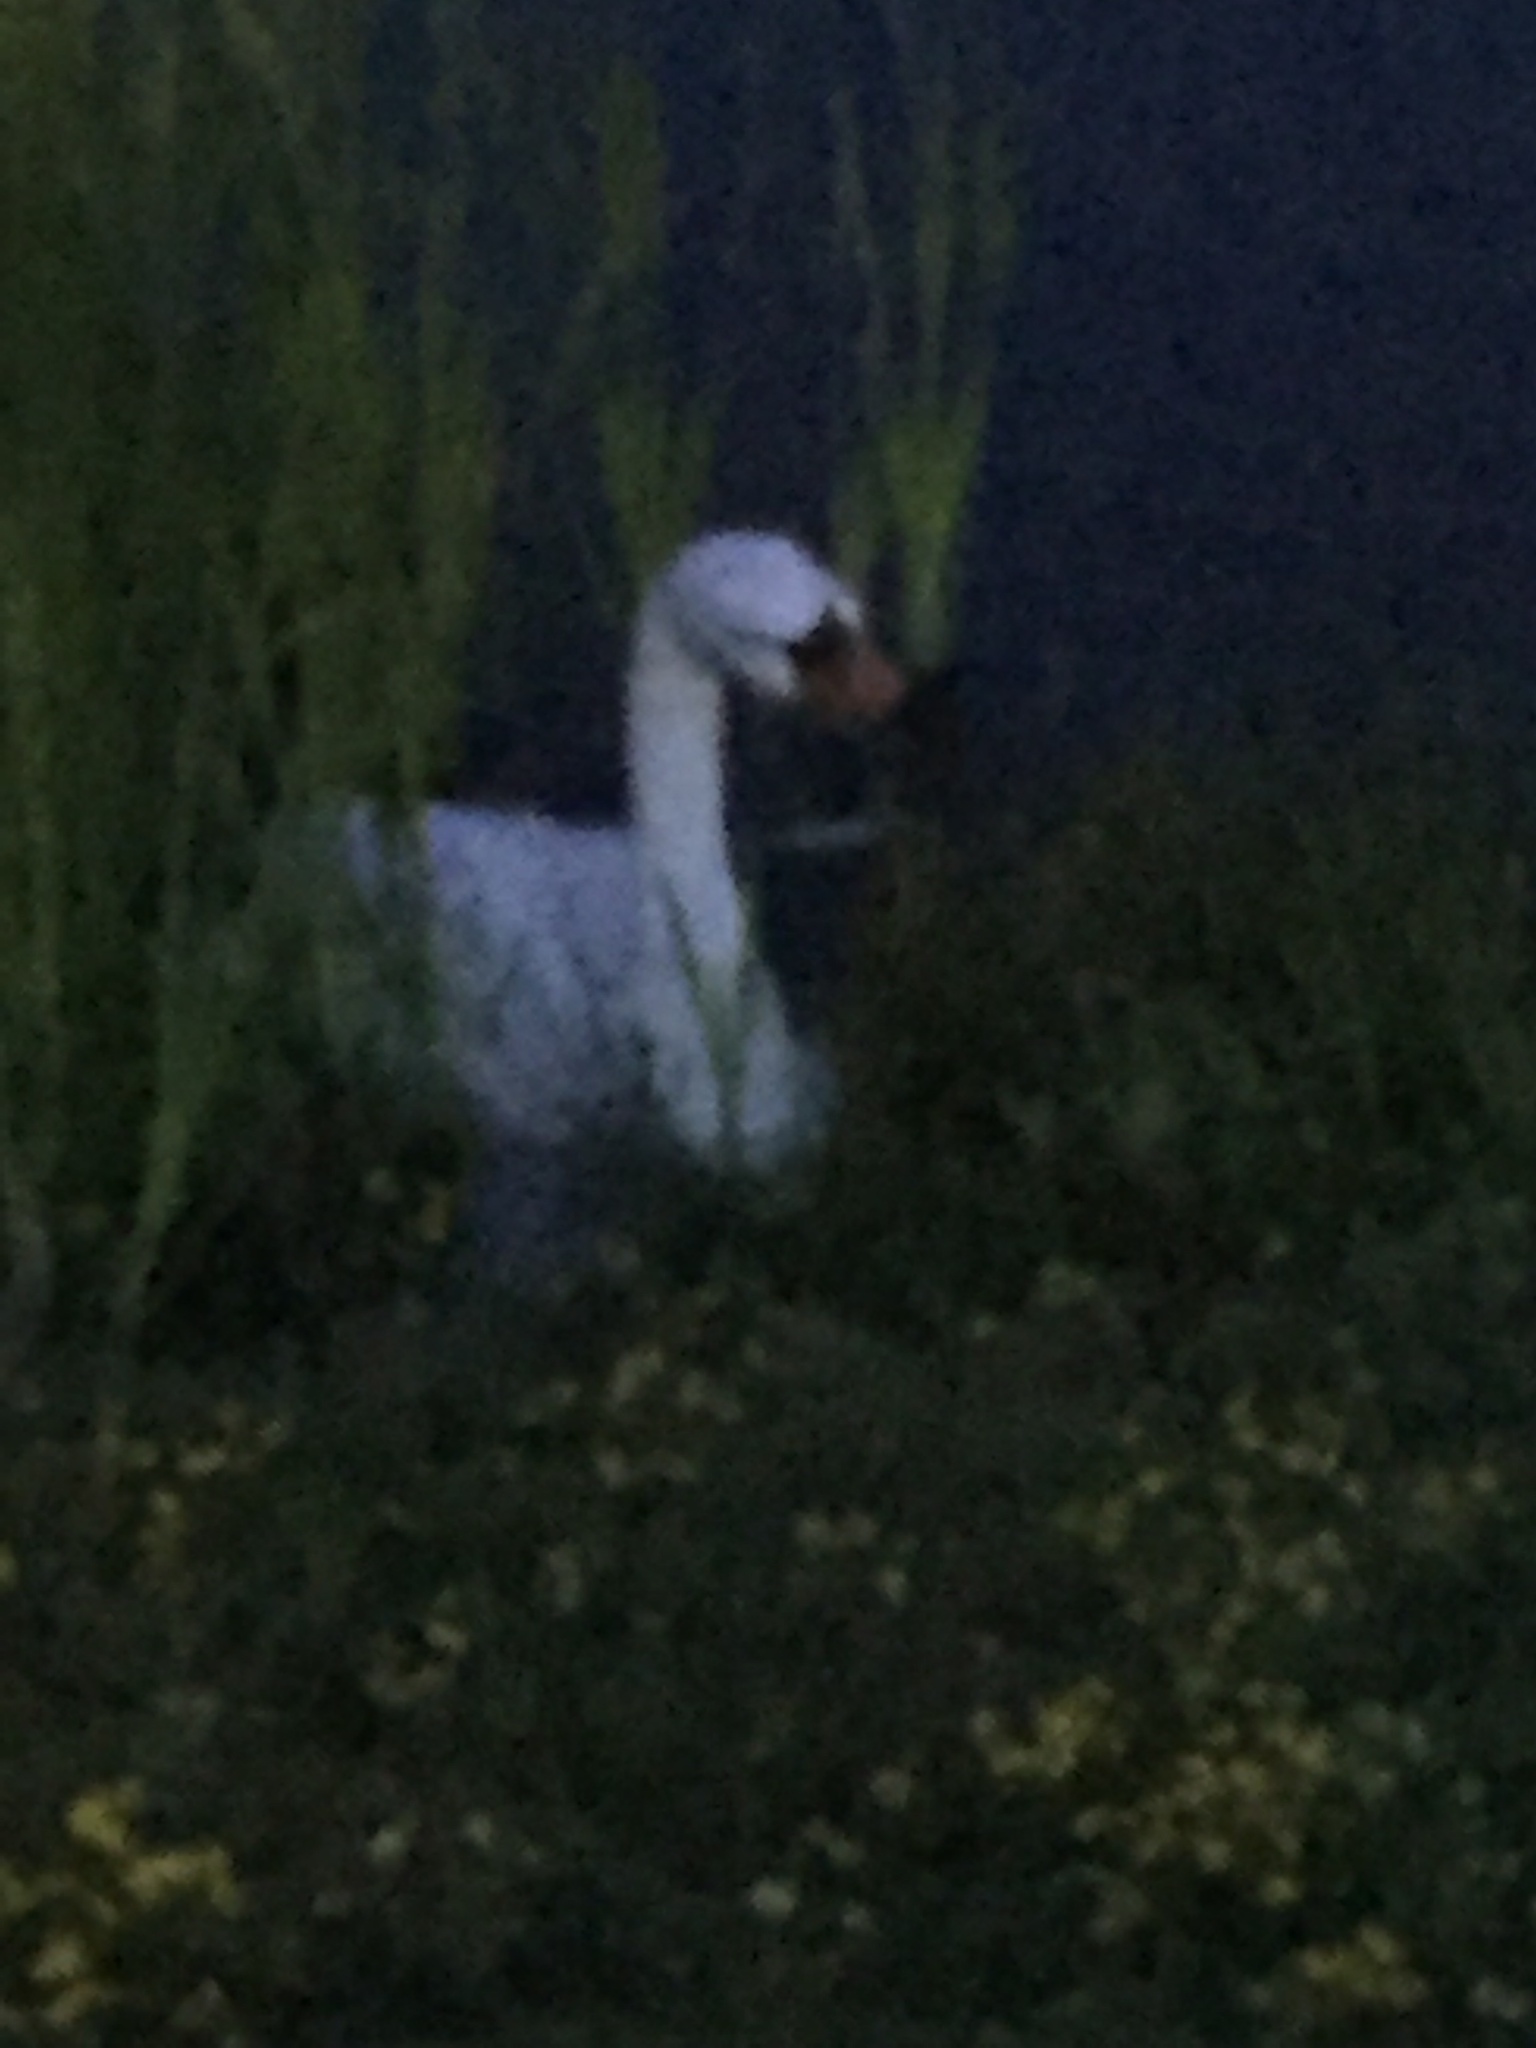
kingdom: Animalia
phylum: Chordata
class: Aves
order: Anseriformes
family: Anatidae
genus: Cygnus
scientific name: Cygnus olor
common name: Mute swan
